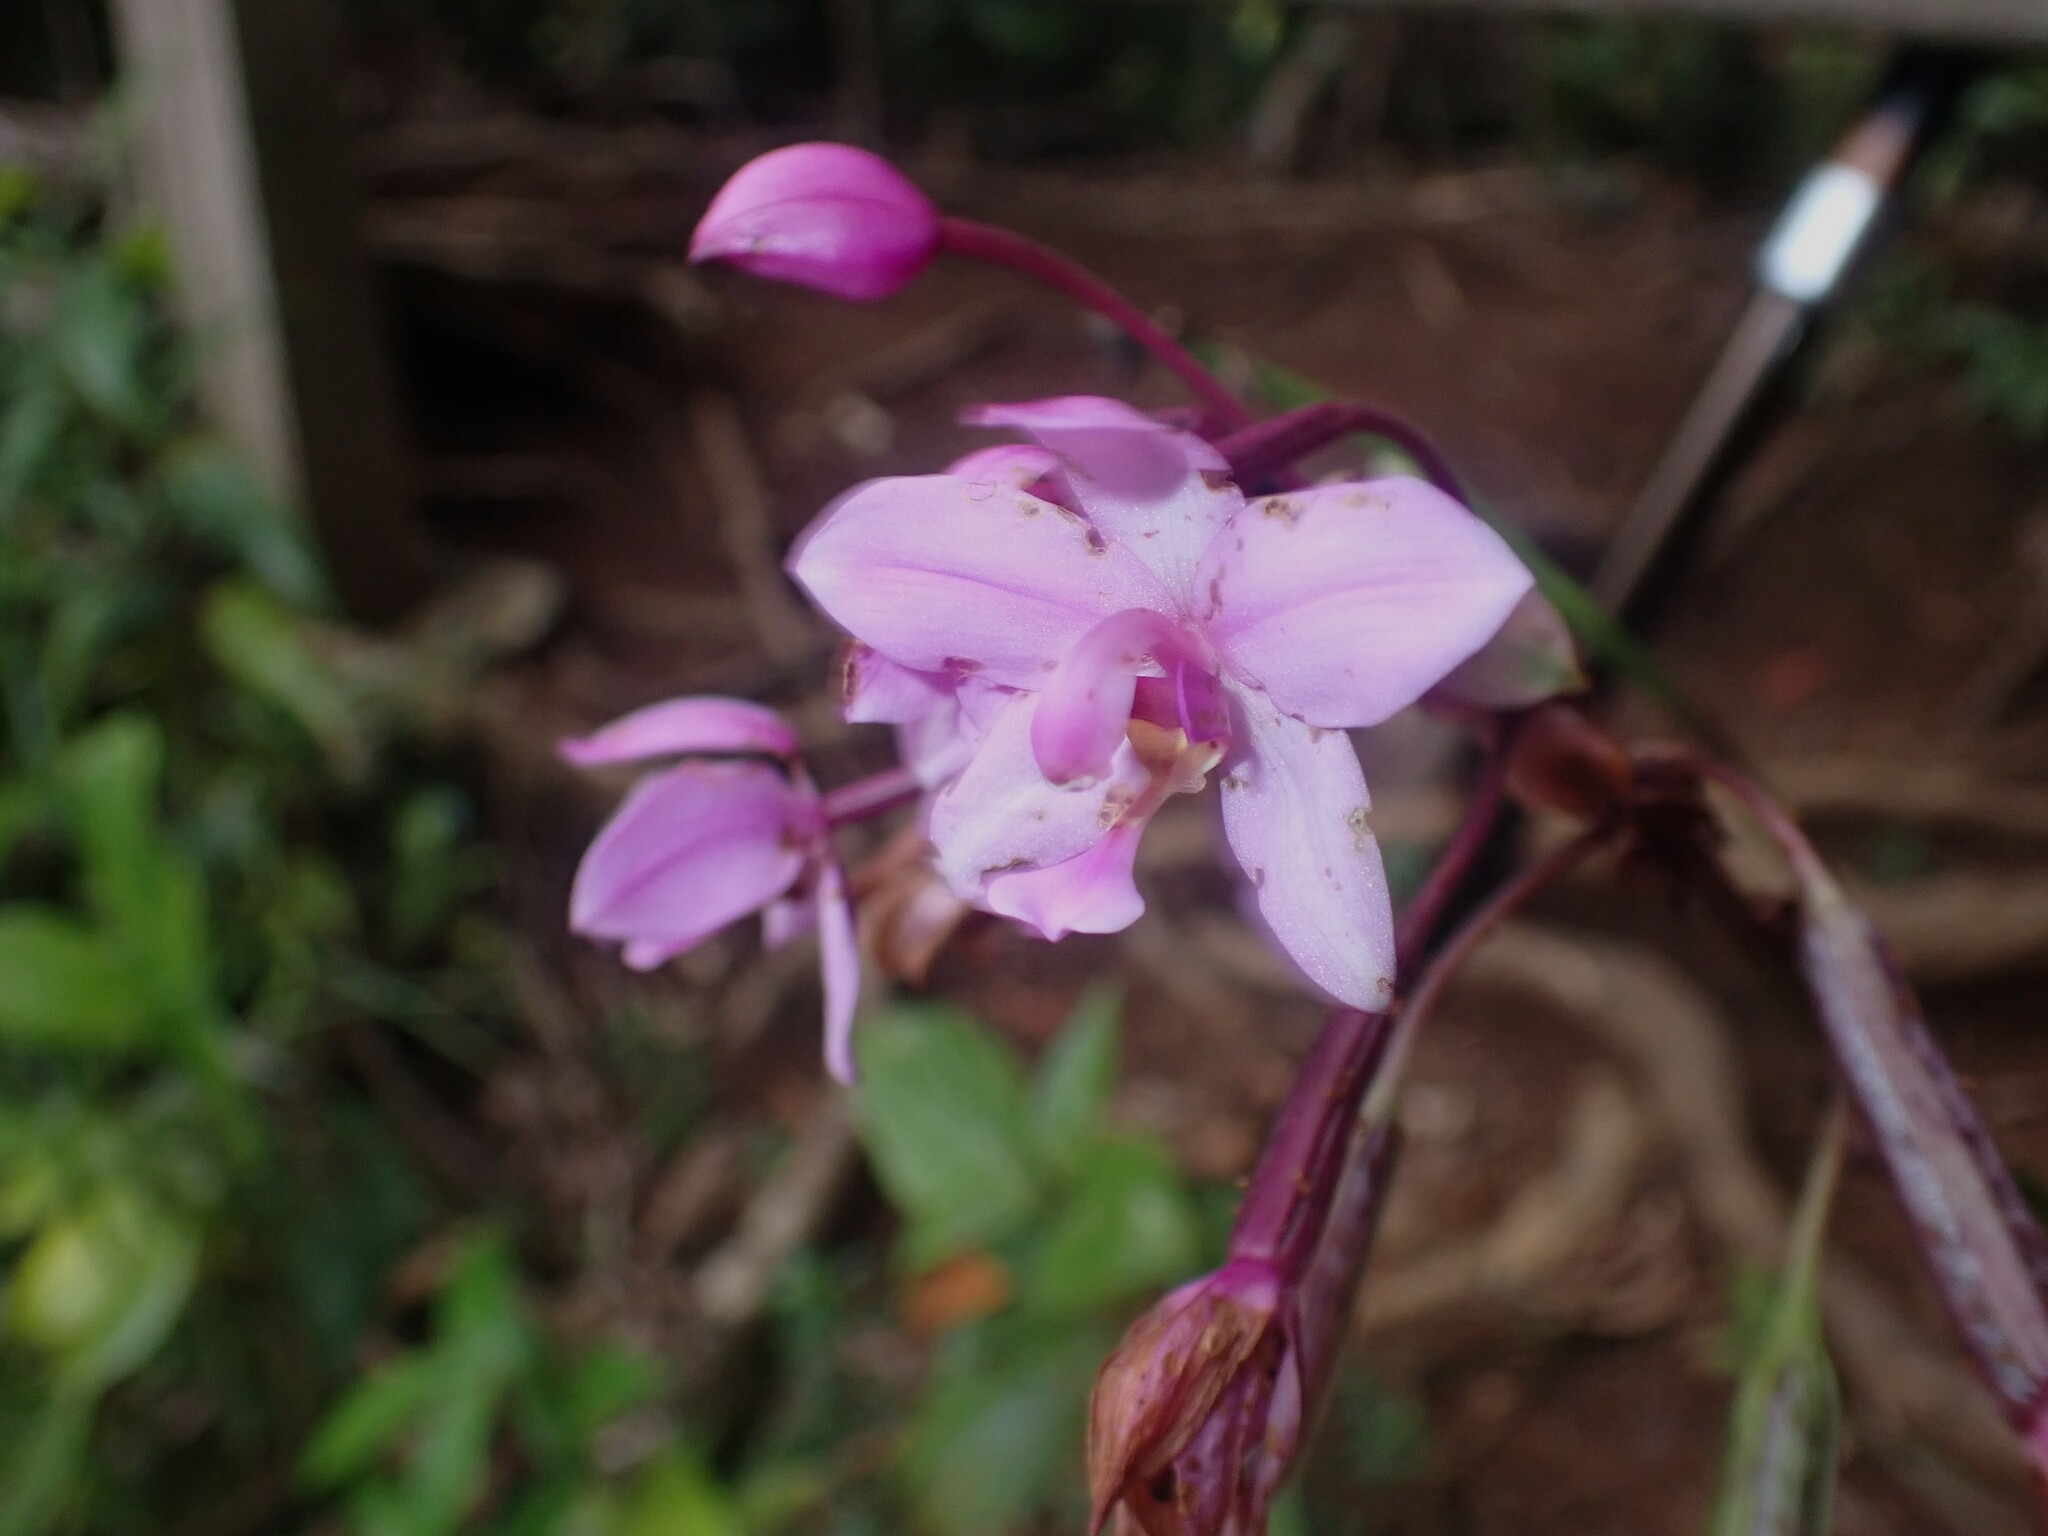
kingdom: Plantae
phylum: Tracheophyta
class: Liliopsida
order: Asparagales
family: Orchidaceae
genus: Spathoglottis
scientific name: Spathoglottis plicata
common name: Philippine ground orchid
